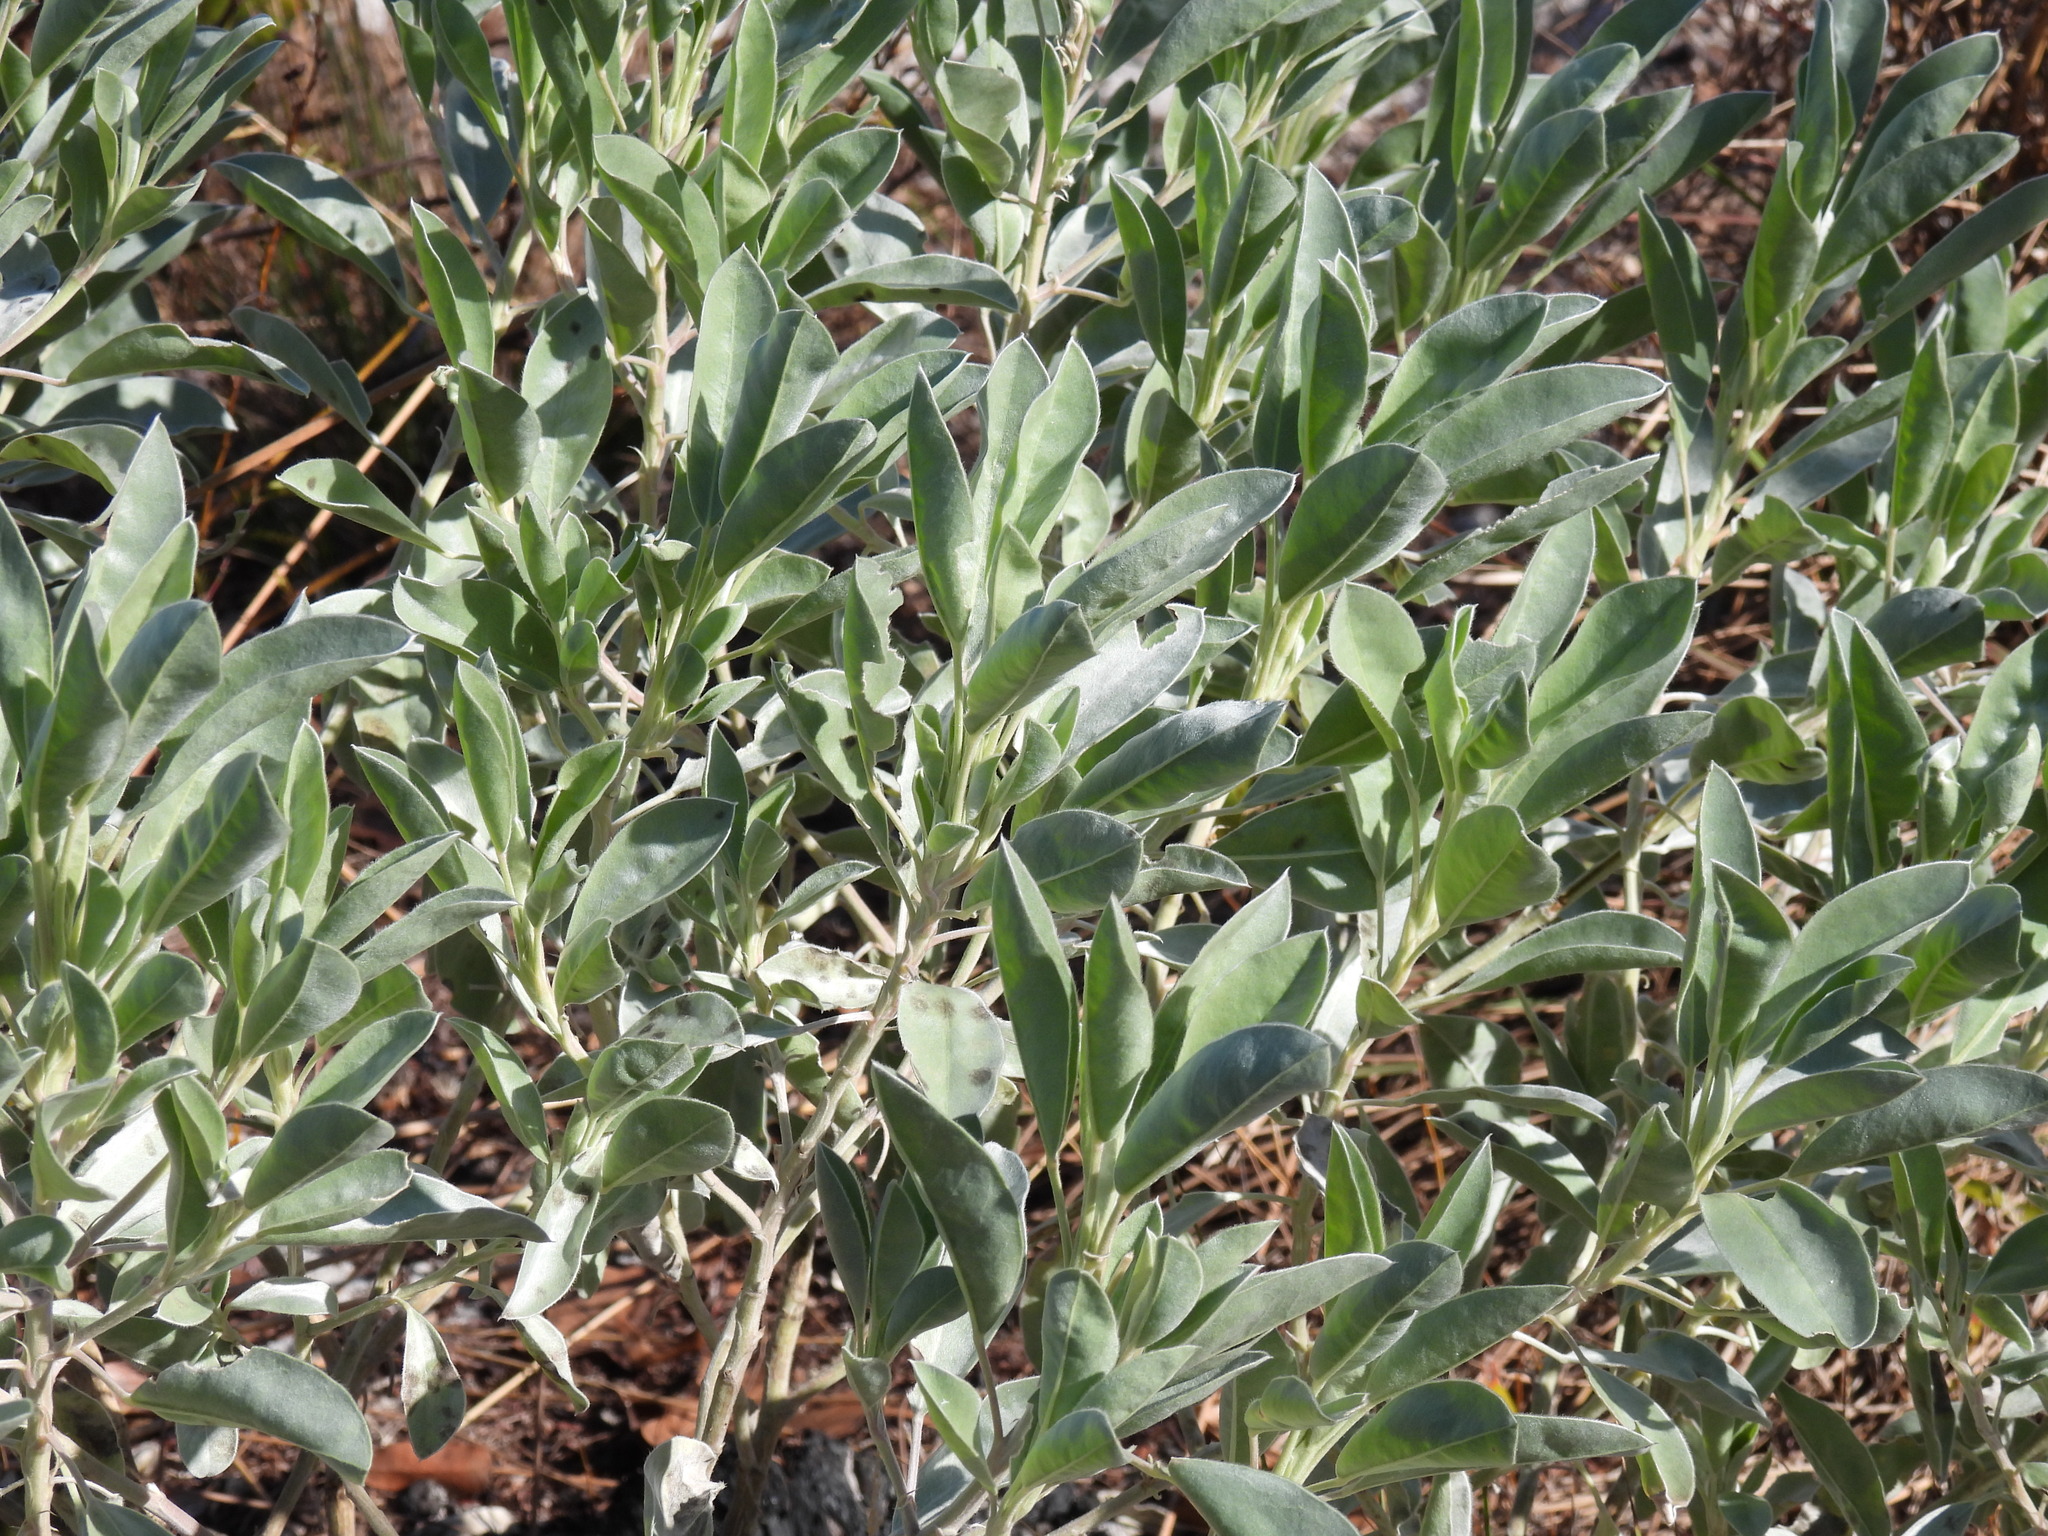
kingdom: Plantae
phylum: Tracheophyta
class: Magnoliopsida
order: Fabales
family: Fabaceae
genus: Lupinus
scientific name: Lupinus cumulicola
